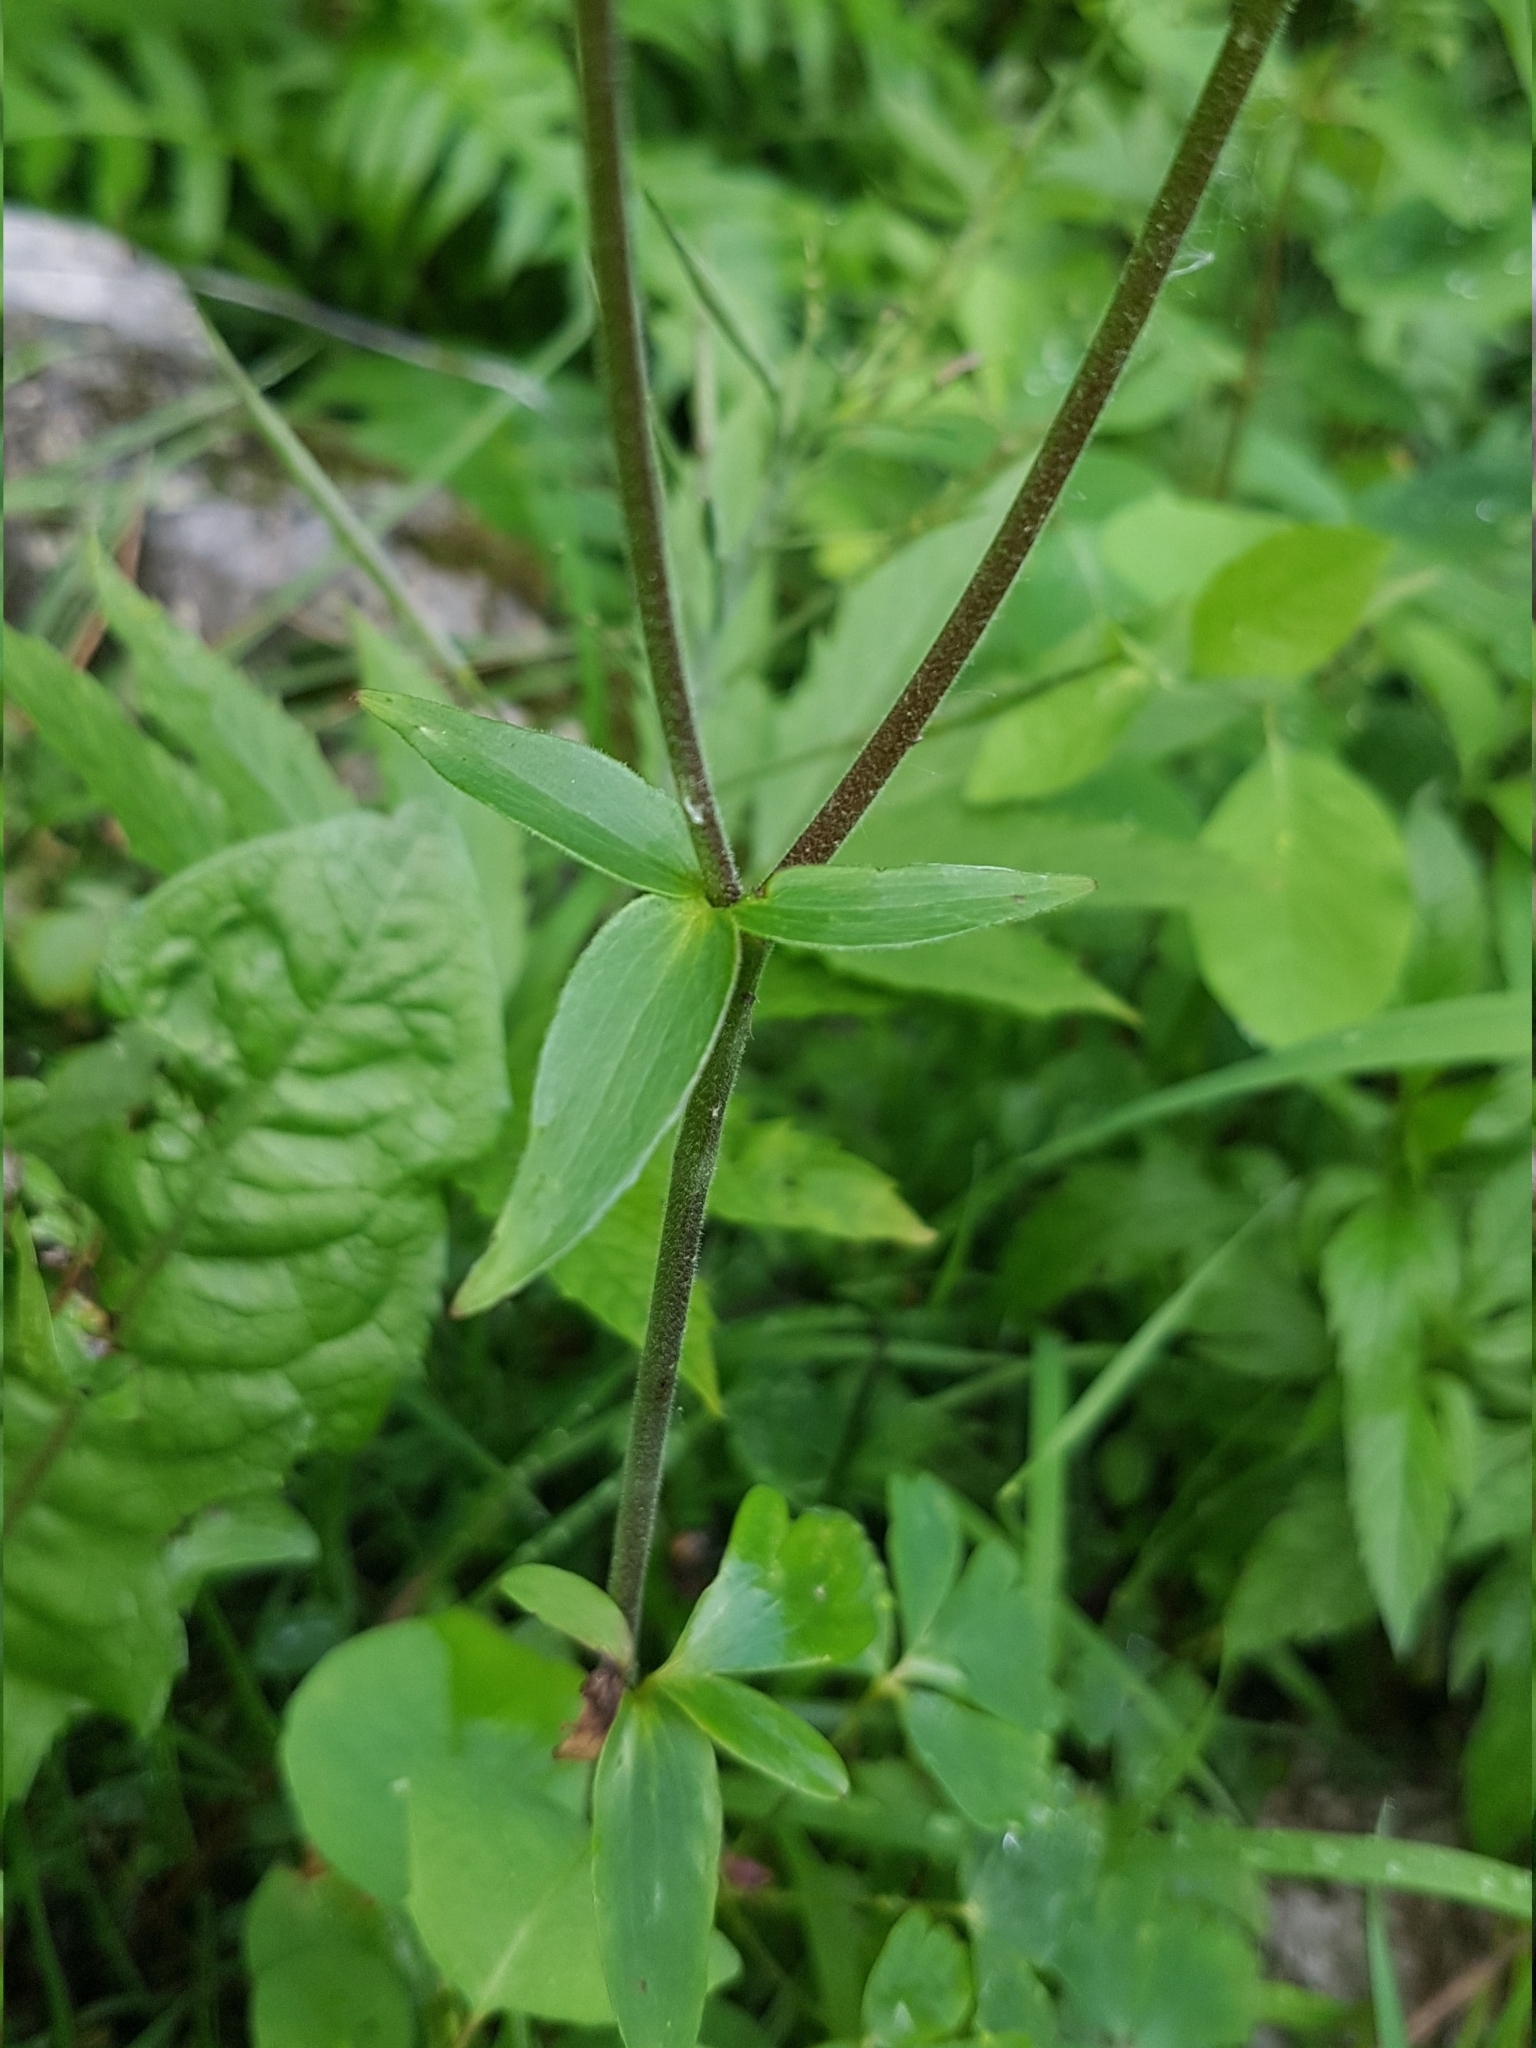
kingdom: Plantae
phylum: Tracheophyta
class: Magnoliopsida
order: Ranunculales
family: Ranunculaceae
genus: Aquilegia
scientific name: Aquilegia atrata
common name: Dark columbine
